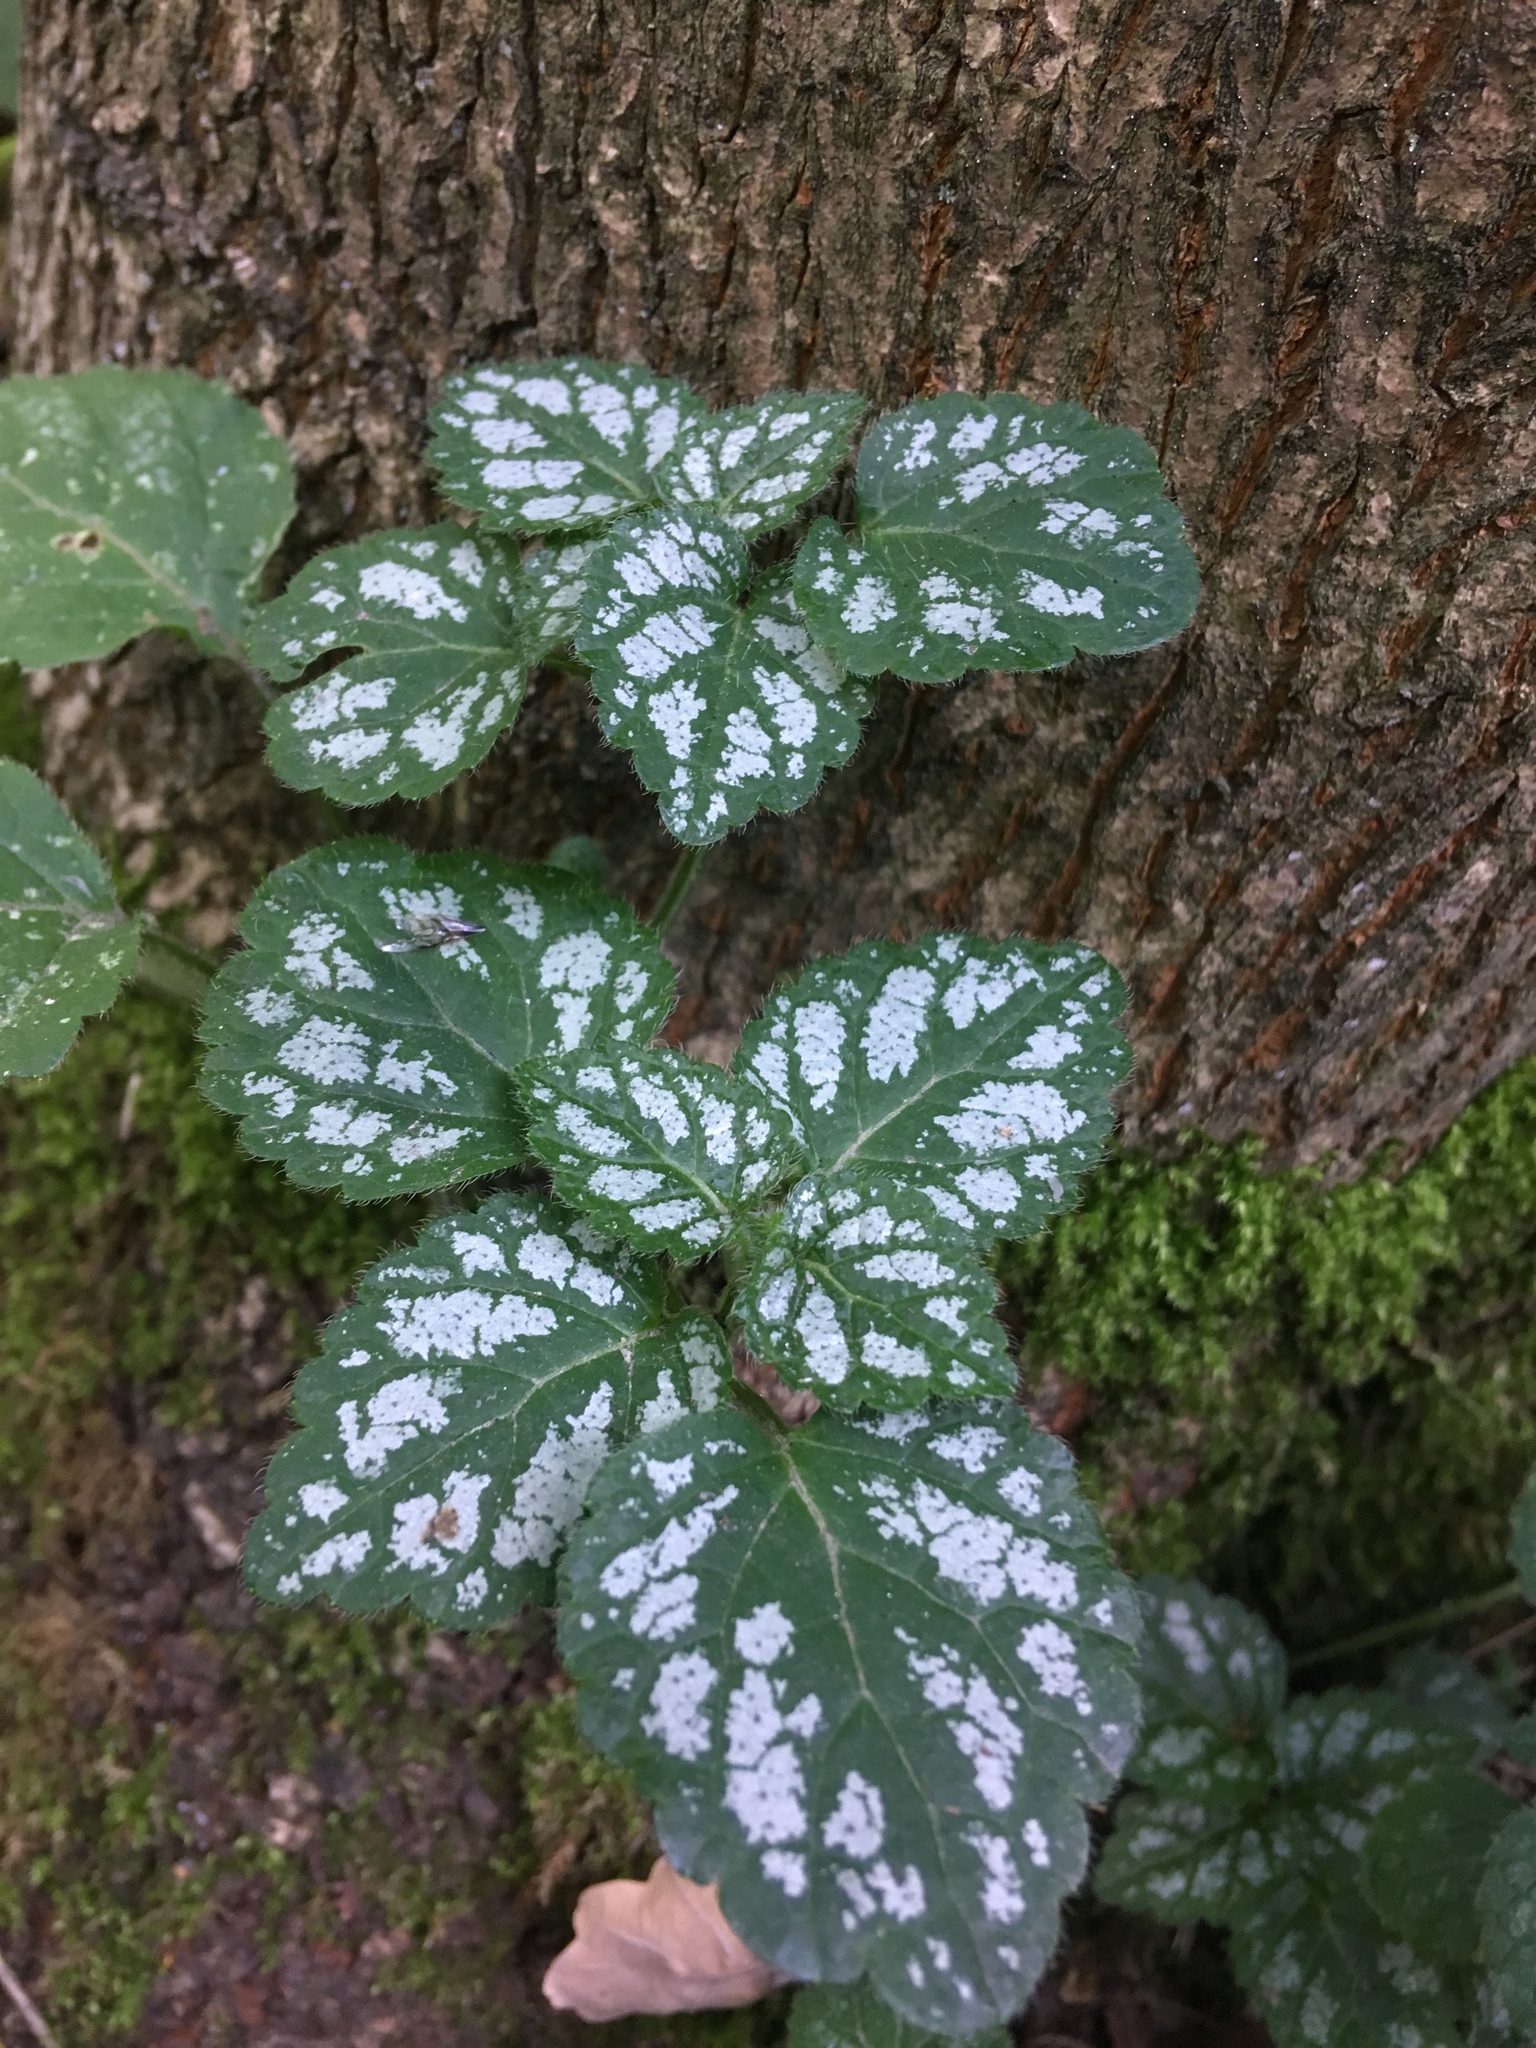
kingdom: Plantae
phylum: Tracheophyta
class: Magnoliopsida
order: Lamiales
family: Lamiaceae
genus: Lamium
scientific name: Lamium galeobdolon
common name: Yellow archangel
